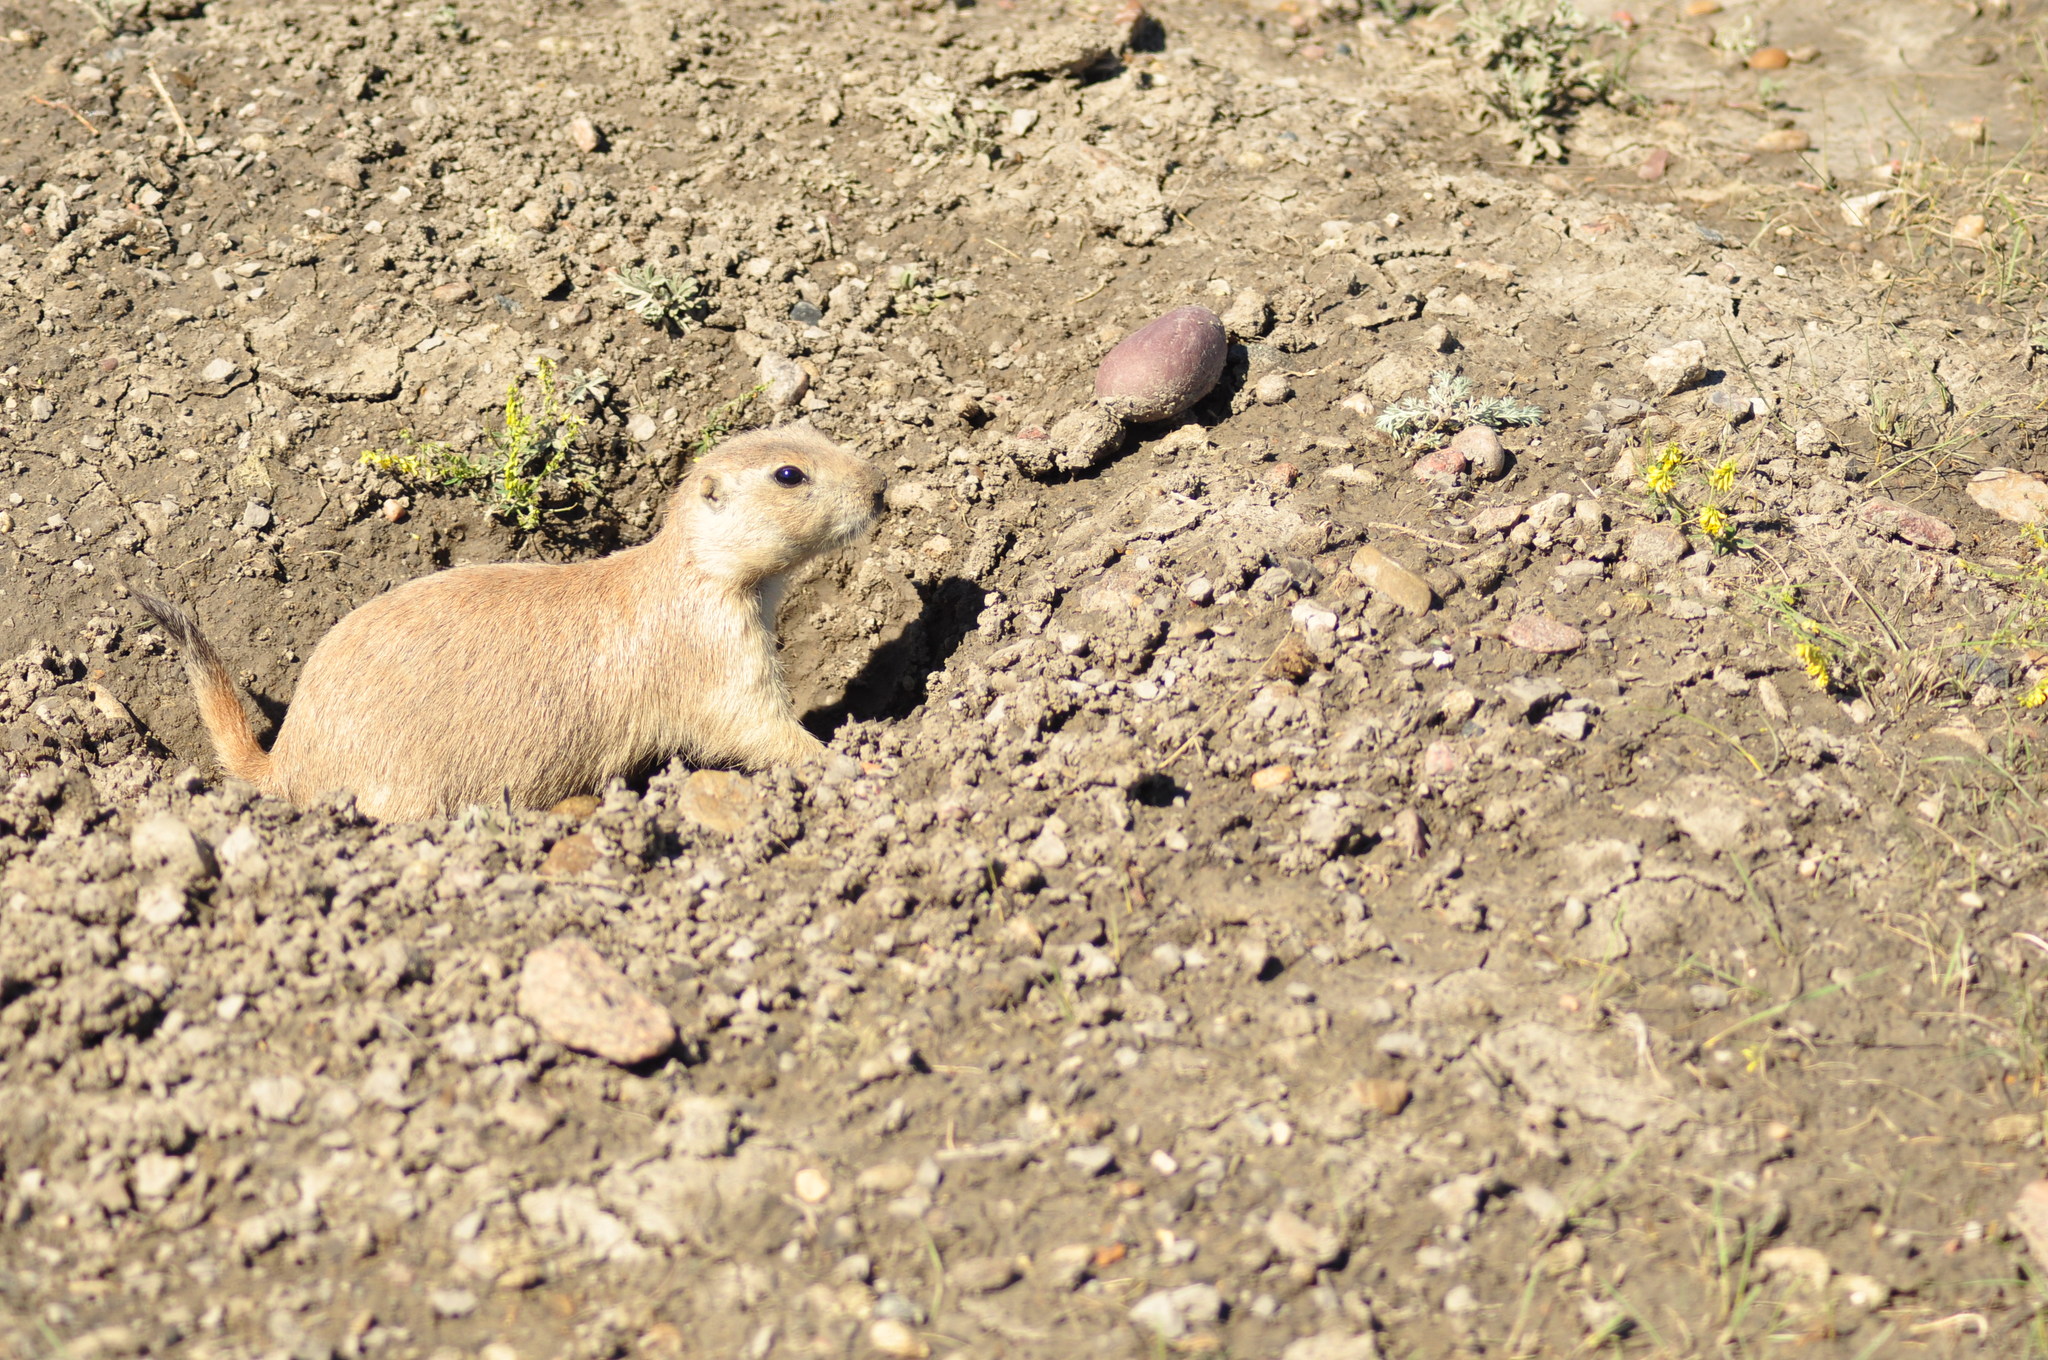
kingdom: Animalia
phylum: Chordata
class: Mammalia
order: Rodentia
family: Sciuridae
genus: Cynomys
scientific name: Cynomys ludovicianus
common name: Black-tailed prairie dog
